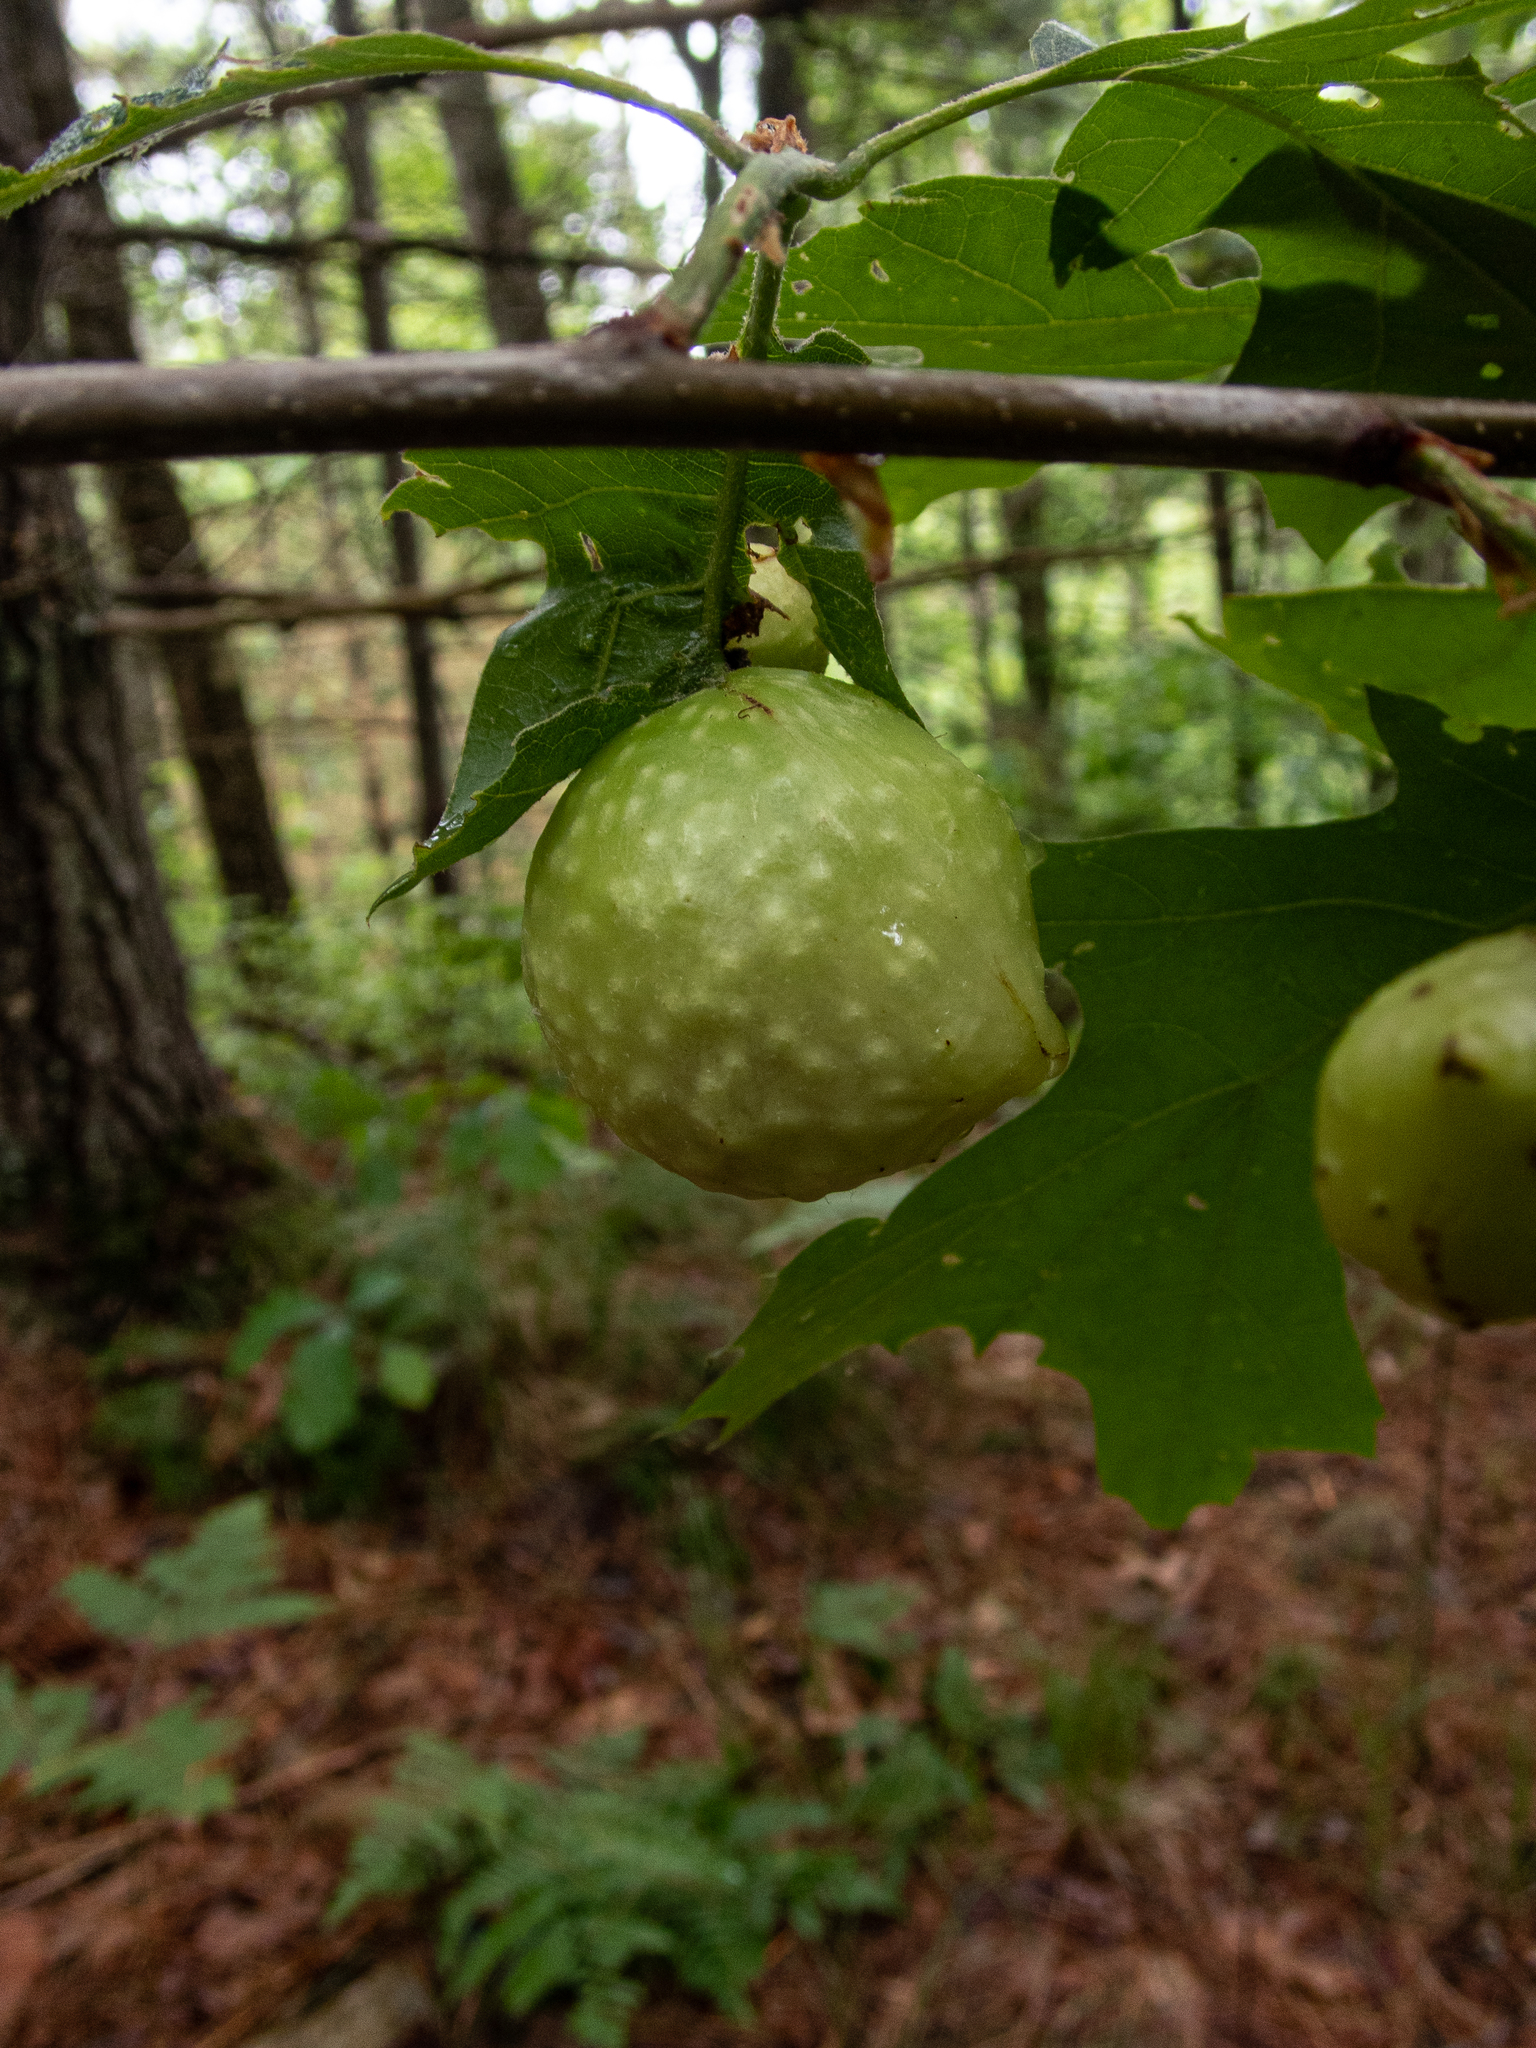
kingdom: Animalia
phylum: Arthropoda
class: Insecta
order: Hymenoptera
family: Cynipidae
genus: Amphibolips
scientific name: Amphibolips
